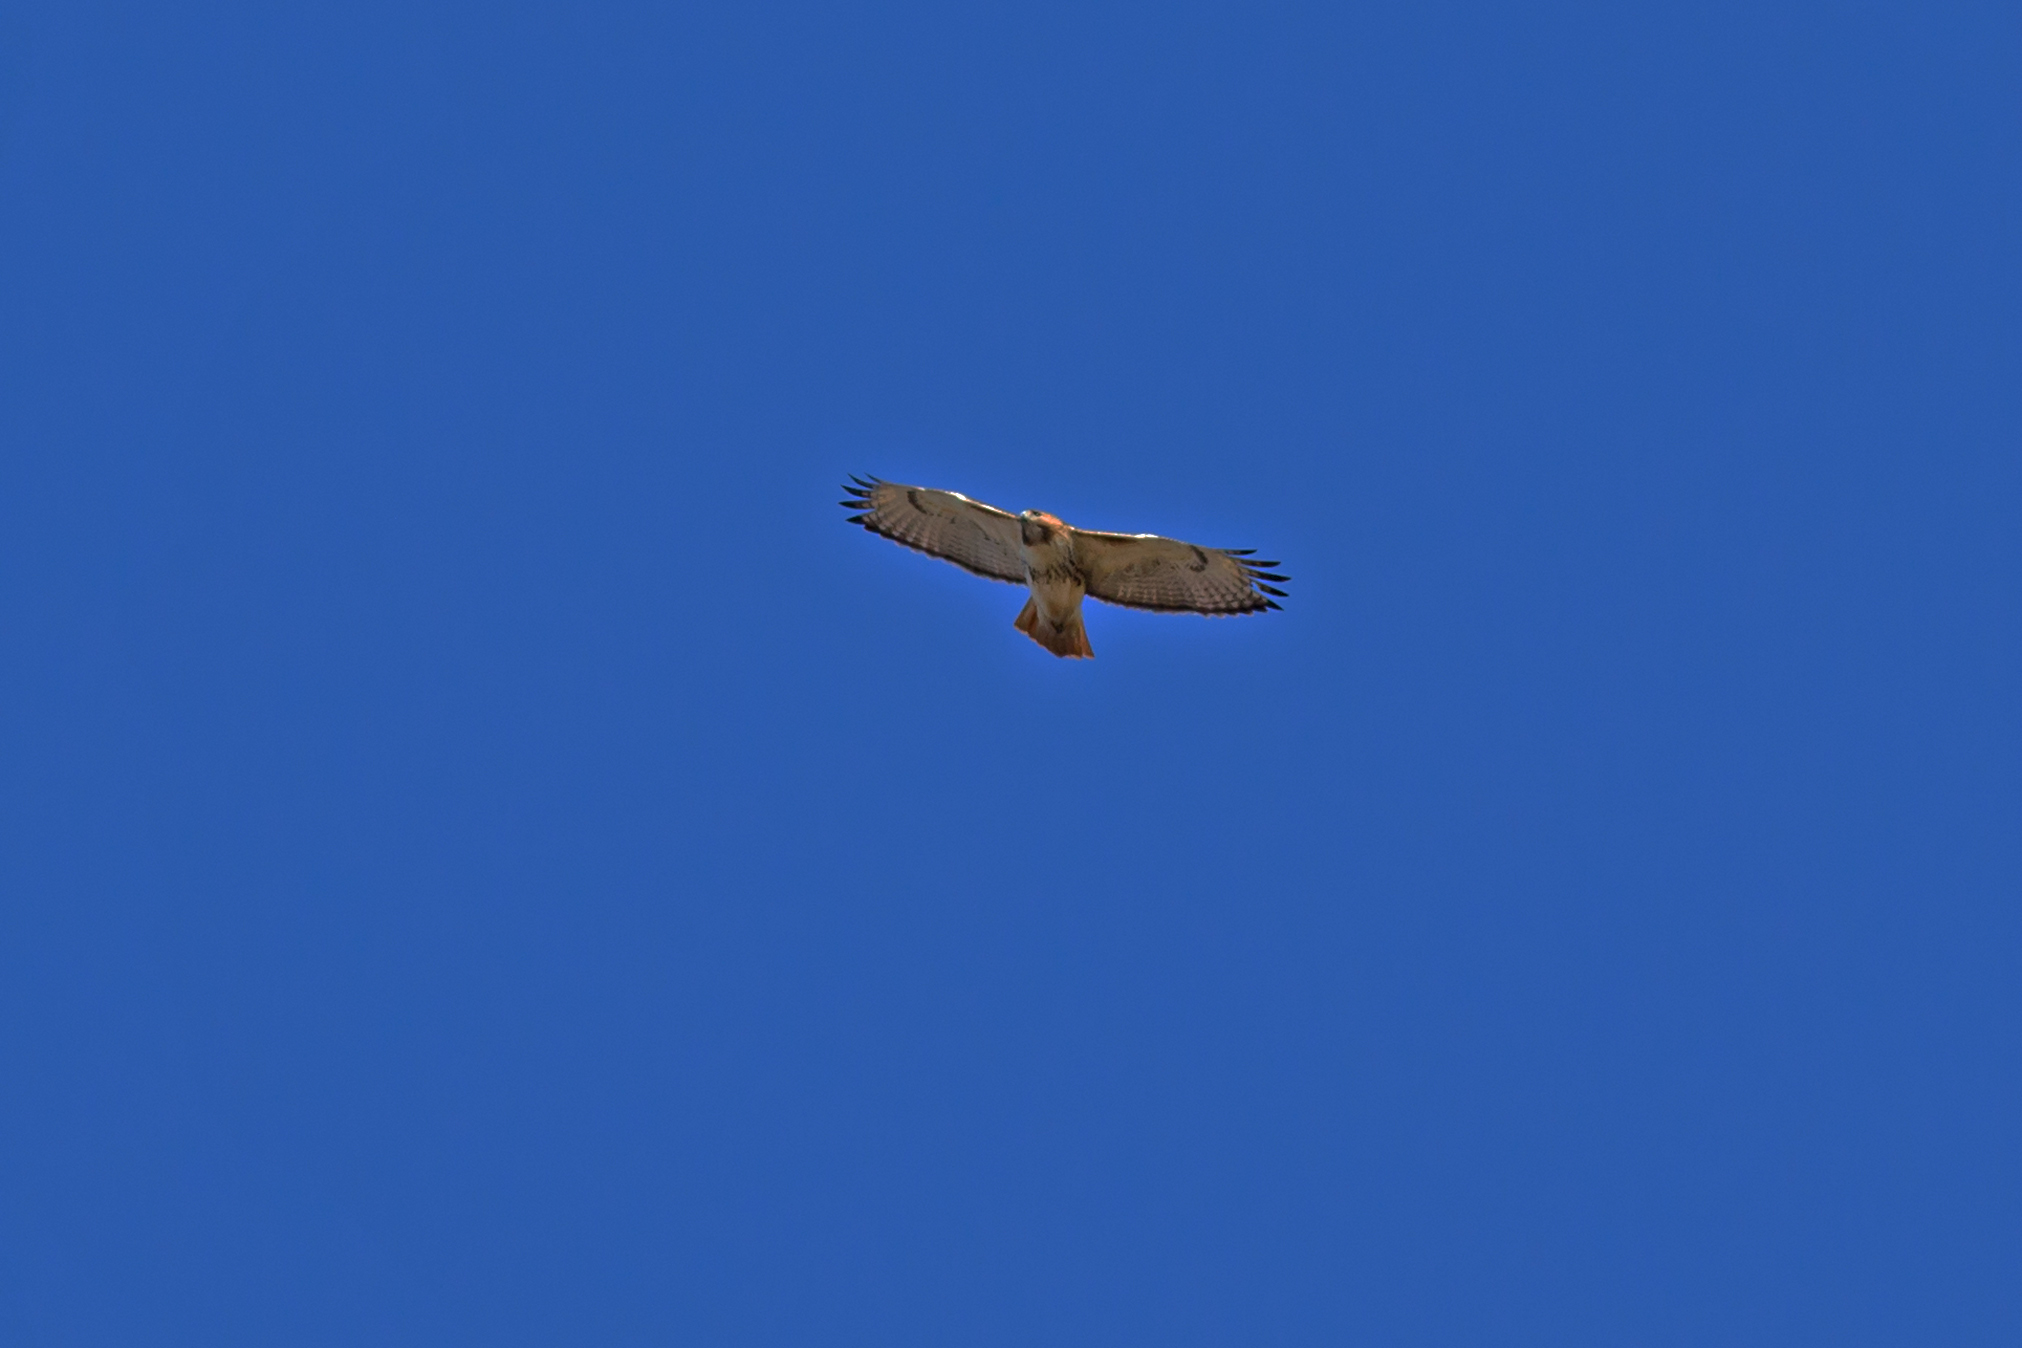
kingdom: Animalia
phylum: Chordata
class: Aves
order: Accipitriformes
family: Accipitridae
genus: Buteo
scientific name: Buteo jamaicensis
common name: Red-tailed hawk
